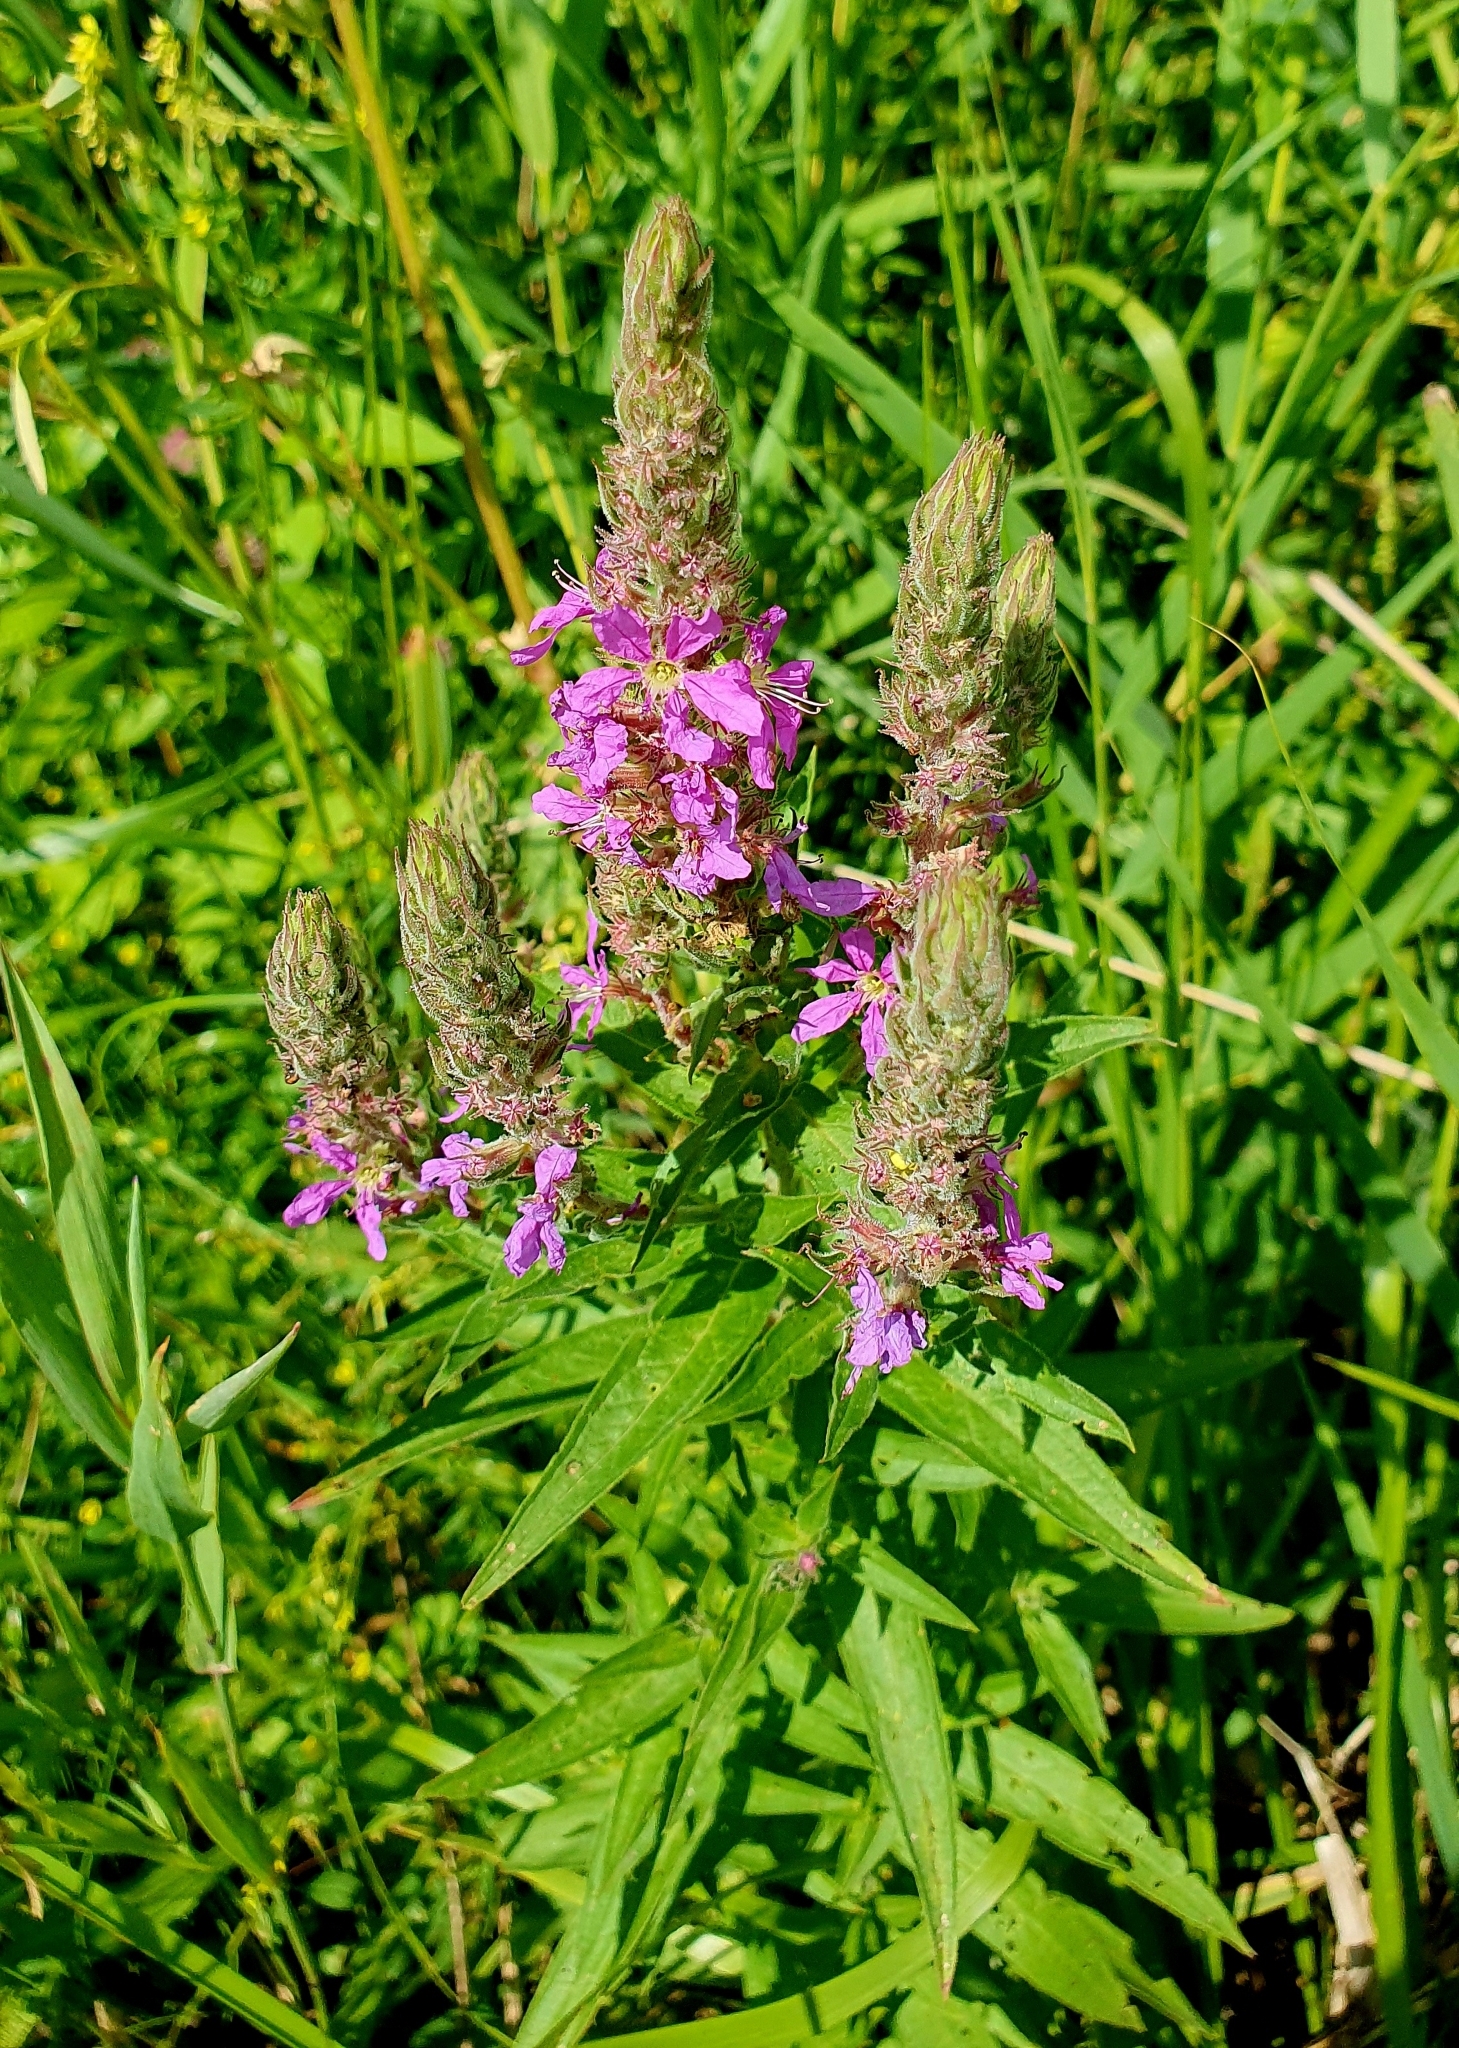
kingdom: Plantae
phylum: Tracheophyta
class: Magnoliopsida
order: Myrtales
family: Lythraceae
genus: Lythrum
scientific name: Lythrum salicaria
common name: Purple loosestrife
